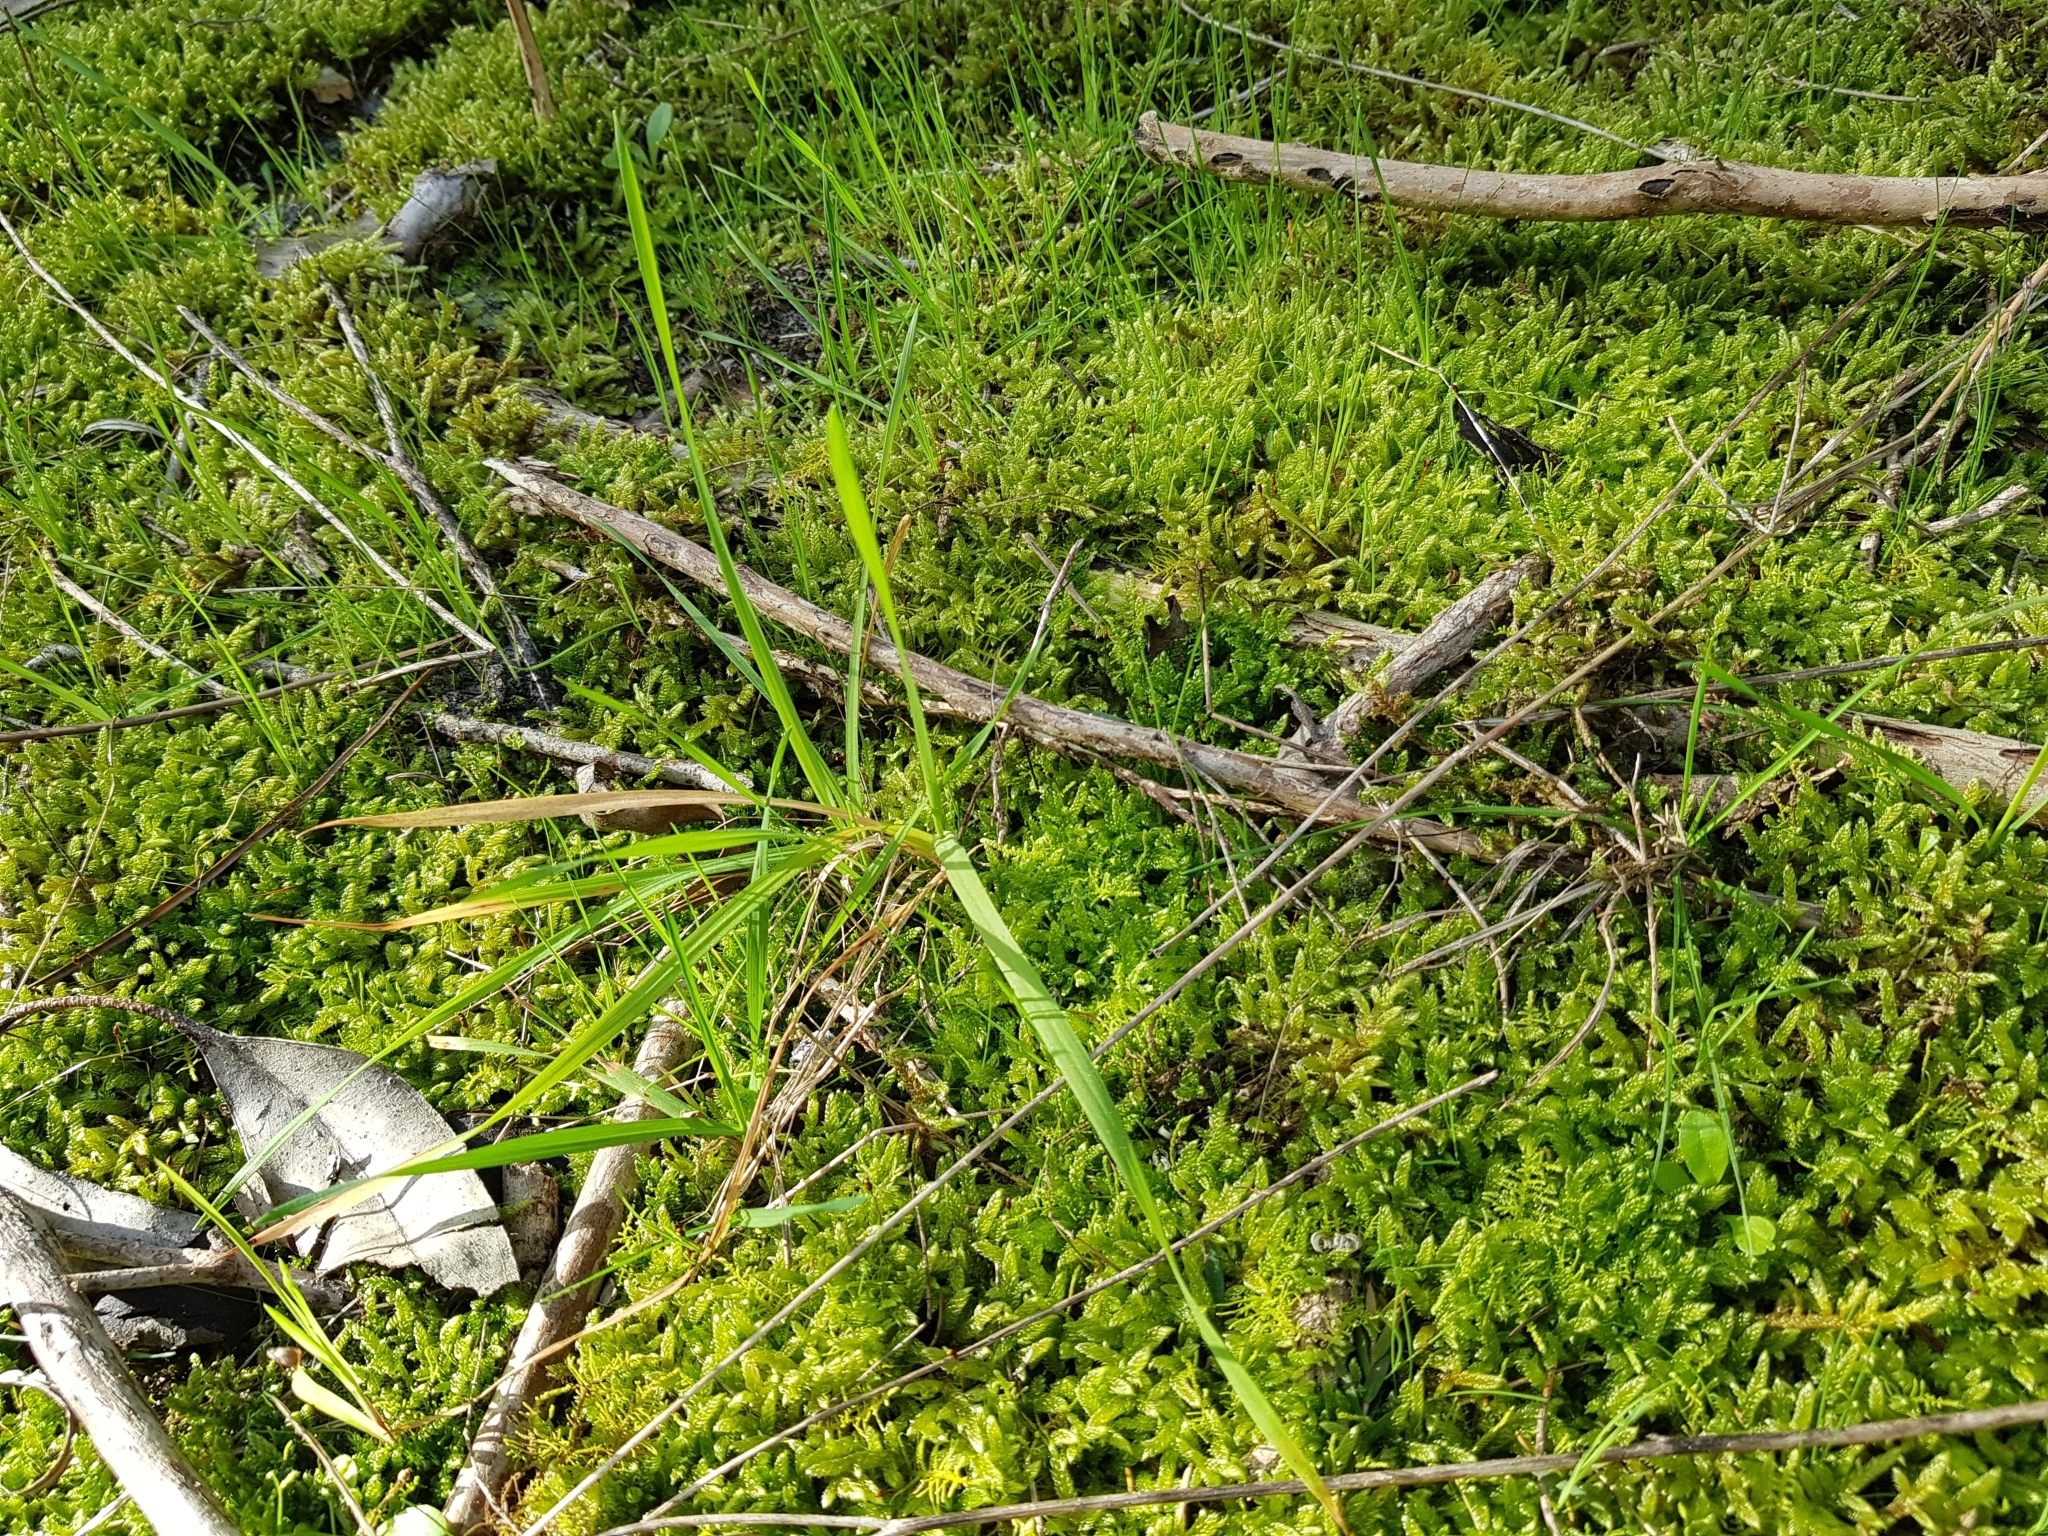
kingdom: Plantae
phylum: Bryophyta
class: Bryopsida
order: Hypnales
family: Hypnaceae
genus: Hypnum
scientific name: Hypnum cupressiforme
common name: Cypress-leaved plait-moss
